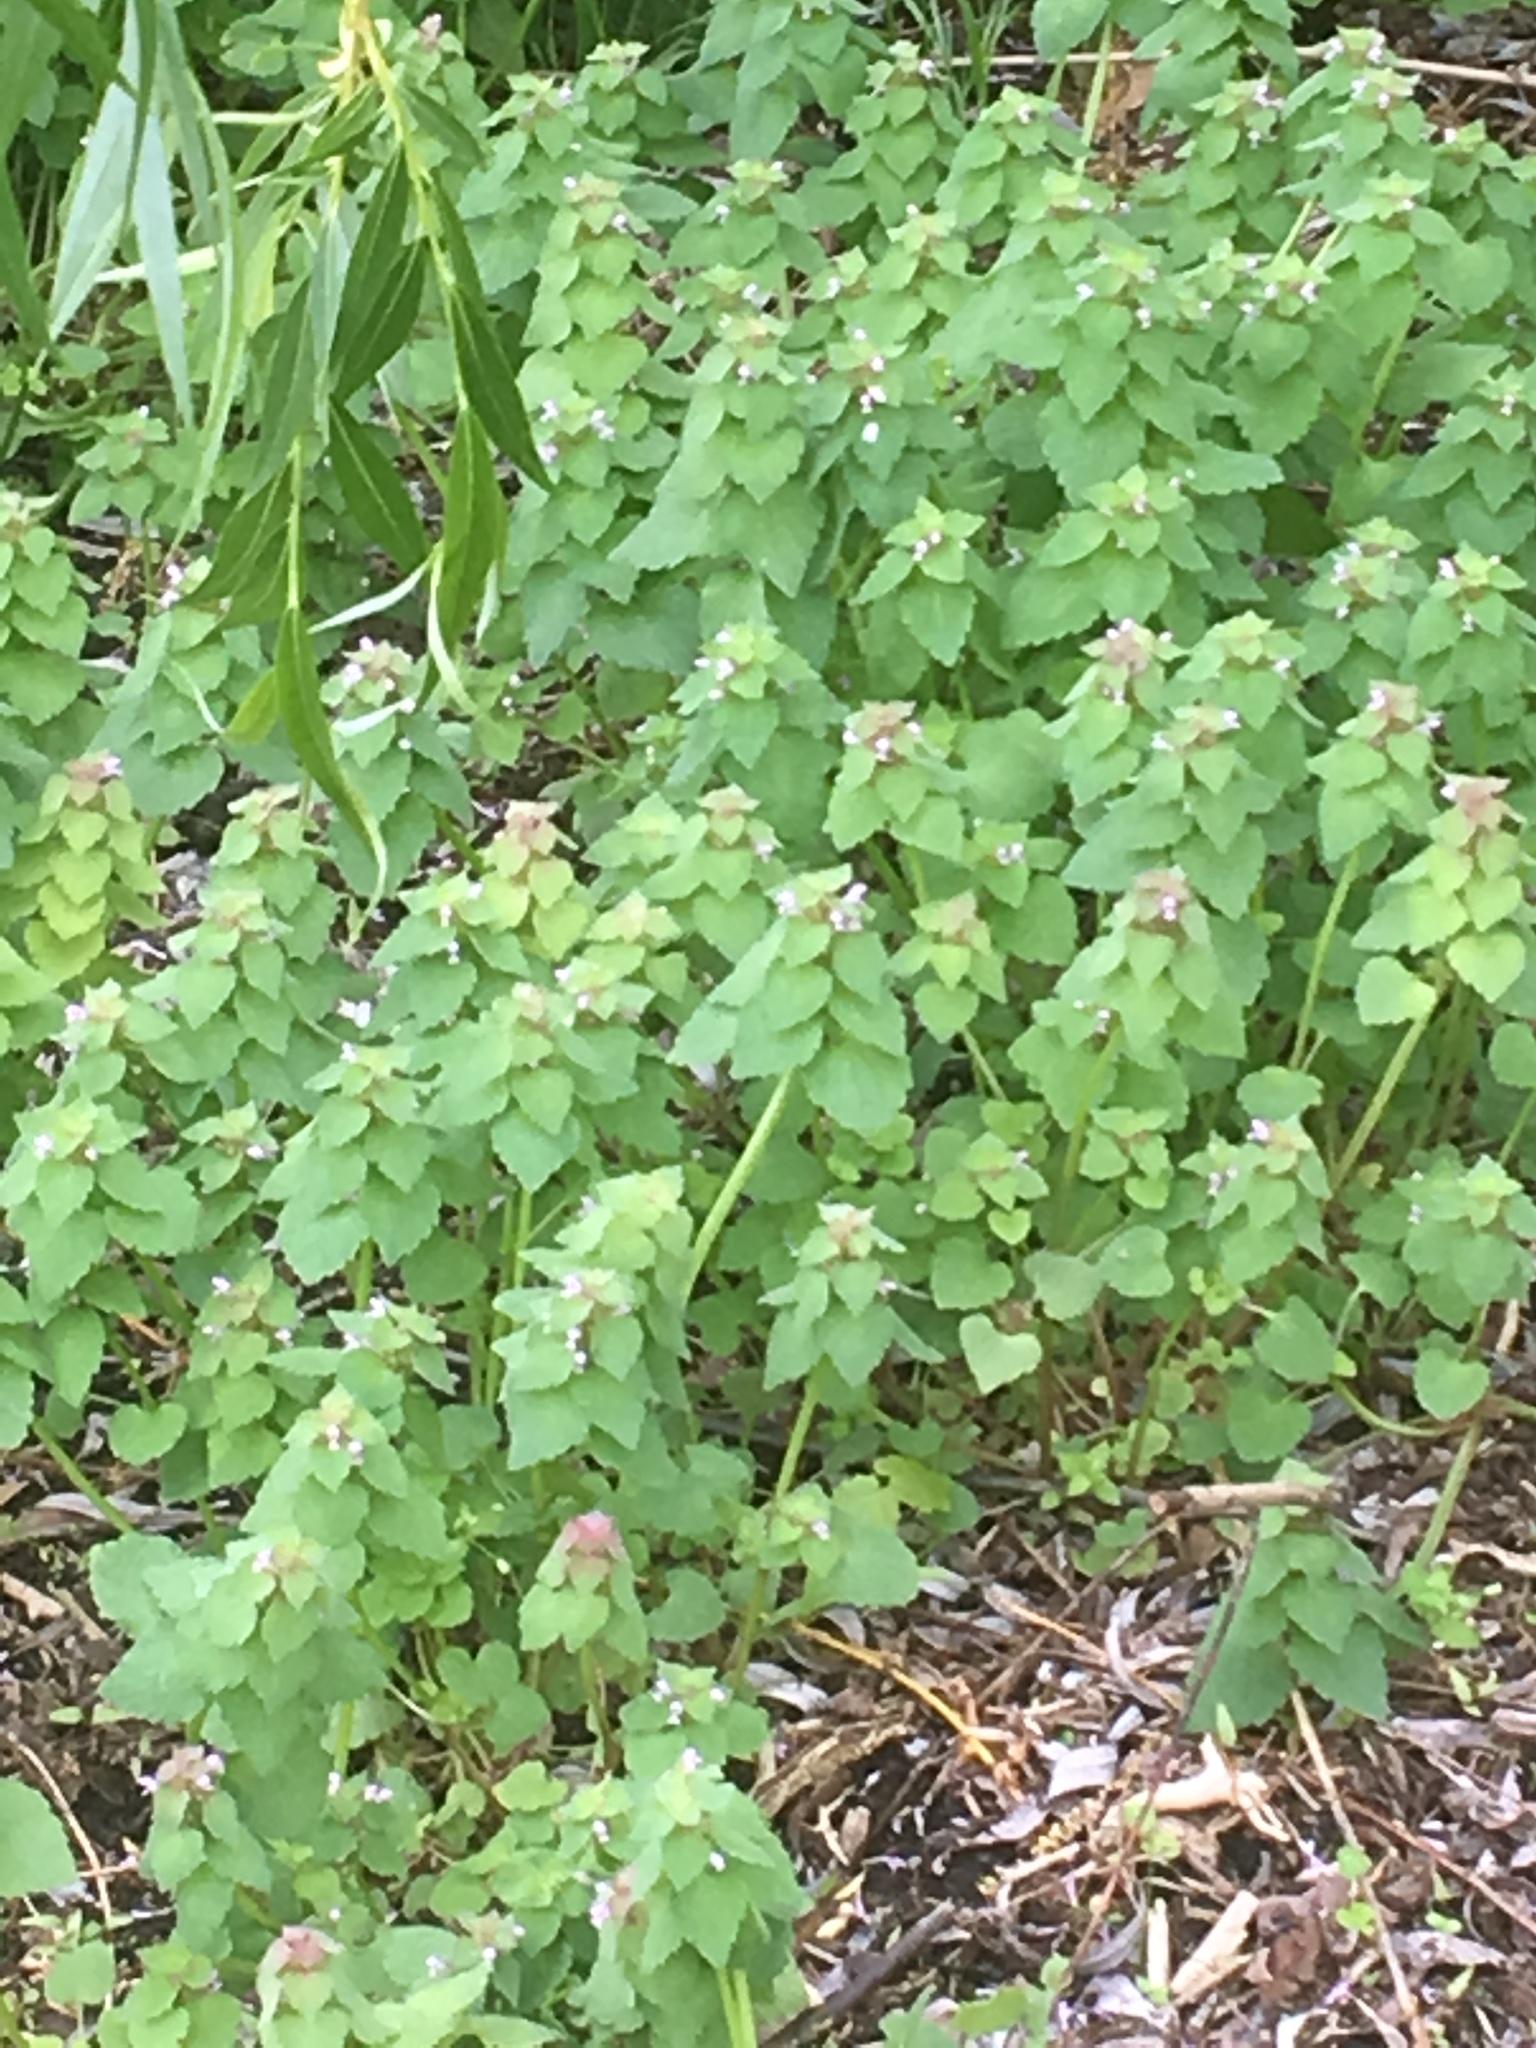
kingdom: Plantae
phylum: Tracheophyta
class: Magnoliopsida
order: Lamiales
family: Lamiaceae
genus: Lamium
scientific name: Lamium purpureum
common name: Red dead-nettle
